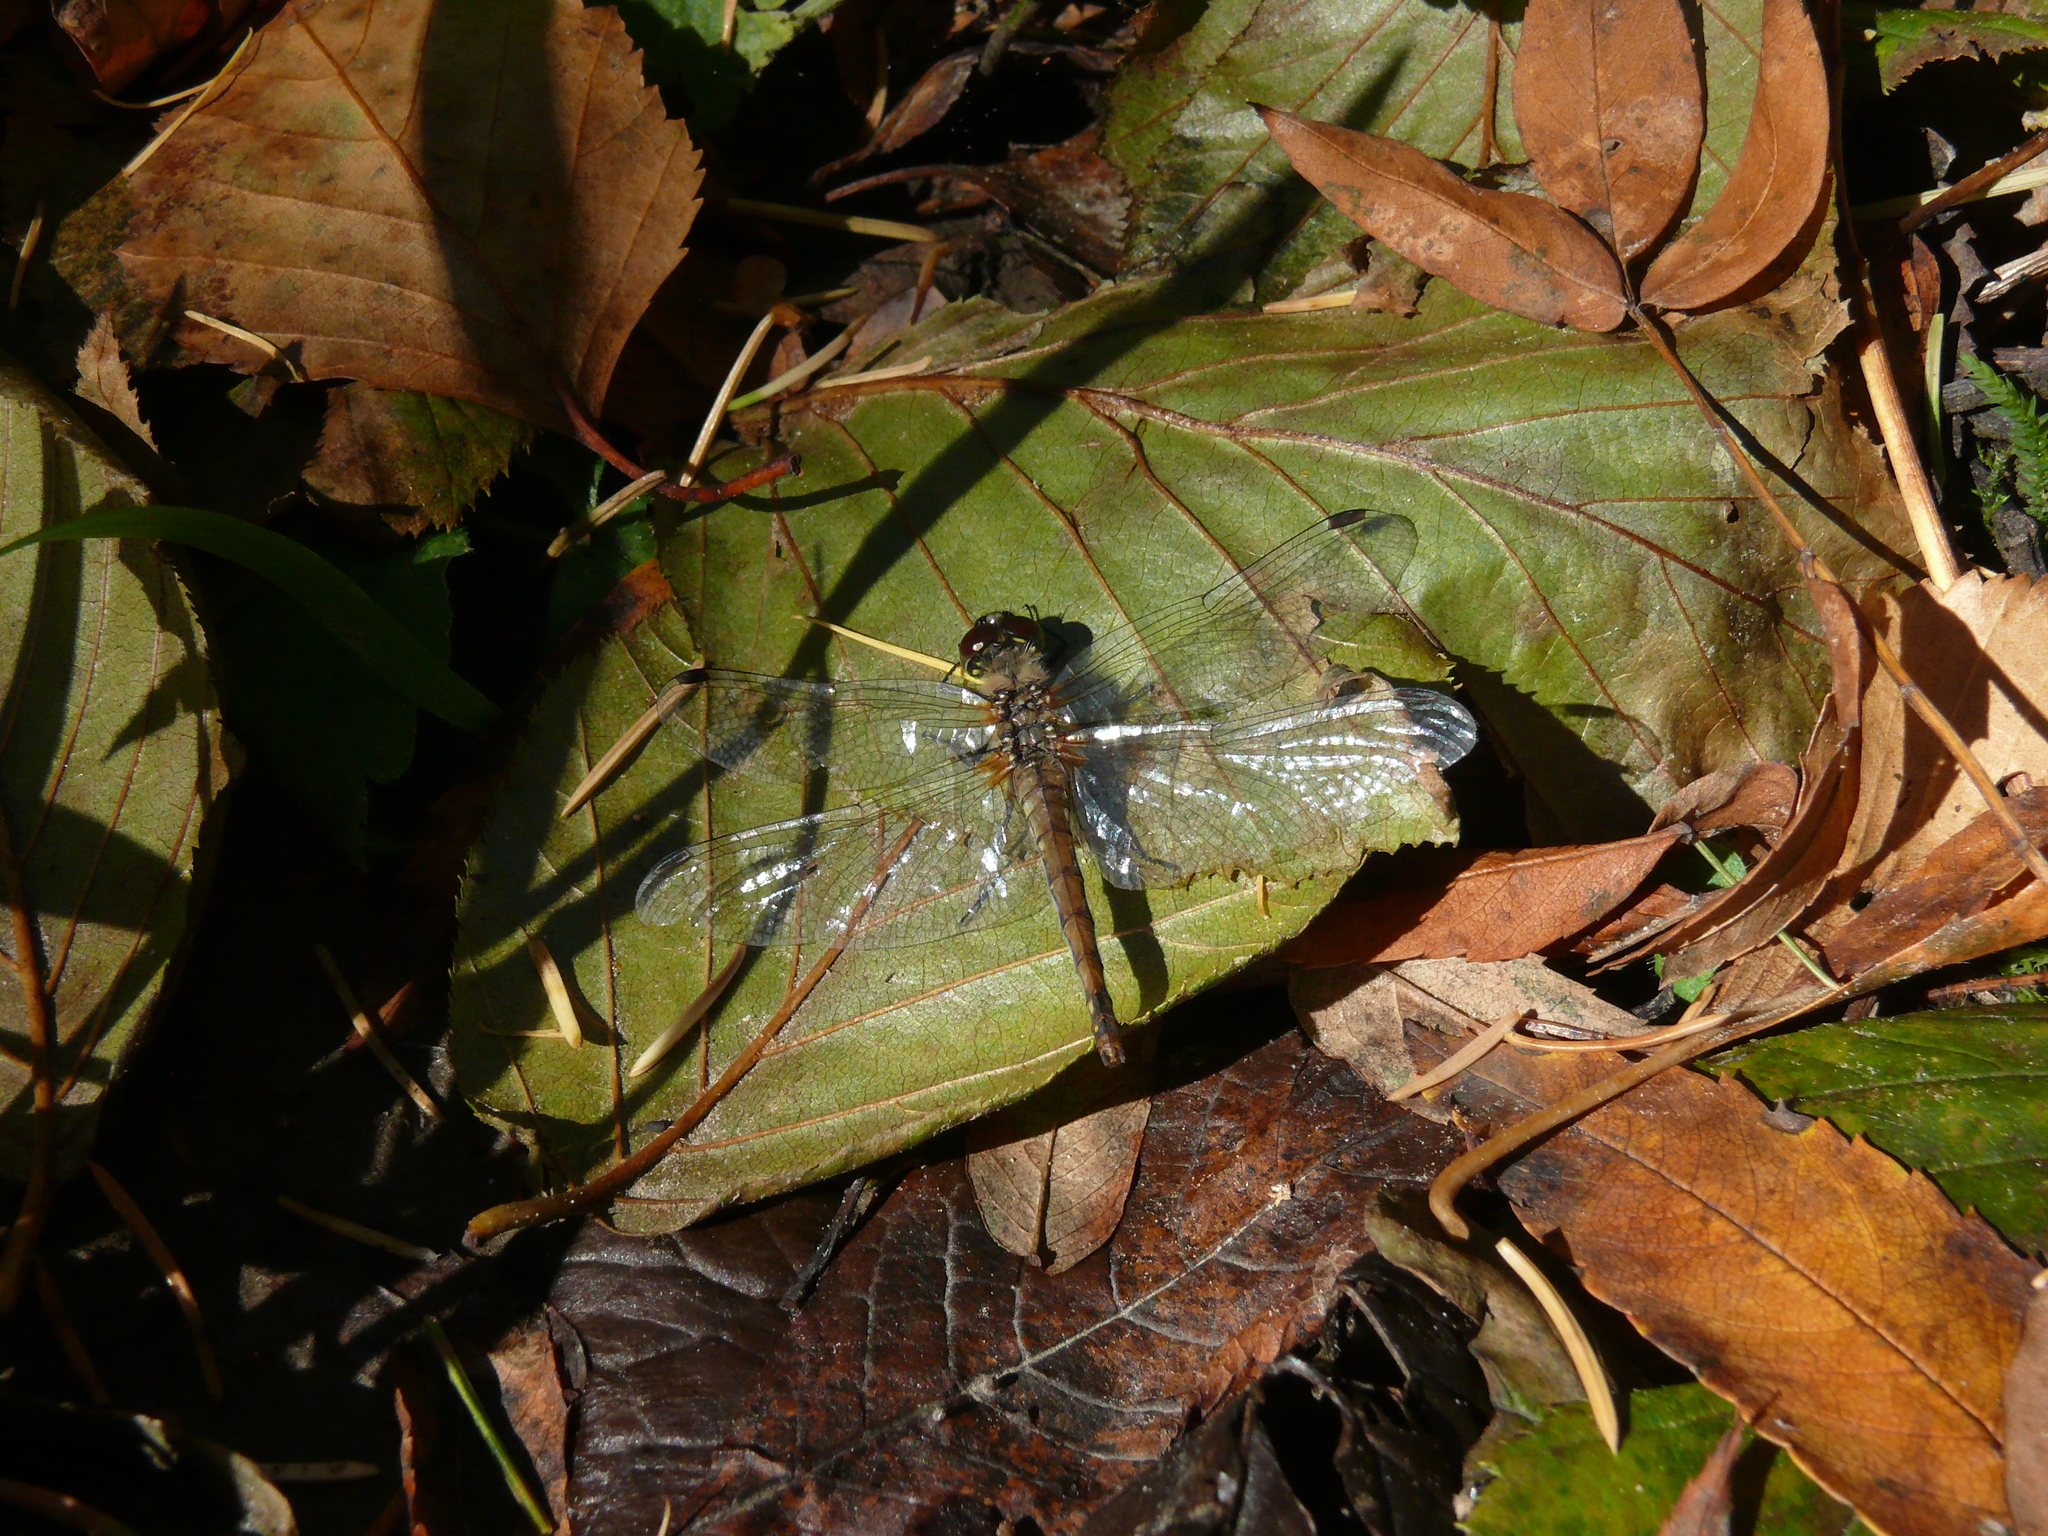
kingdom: Animalia
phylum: Arthropoda
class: Insecta
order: Odonata
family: Libellulidae
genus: Sympetrum
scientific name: Sympetrum danae
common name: Black darter
